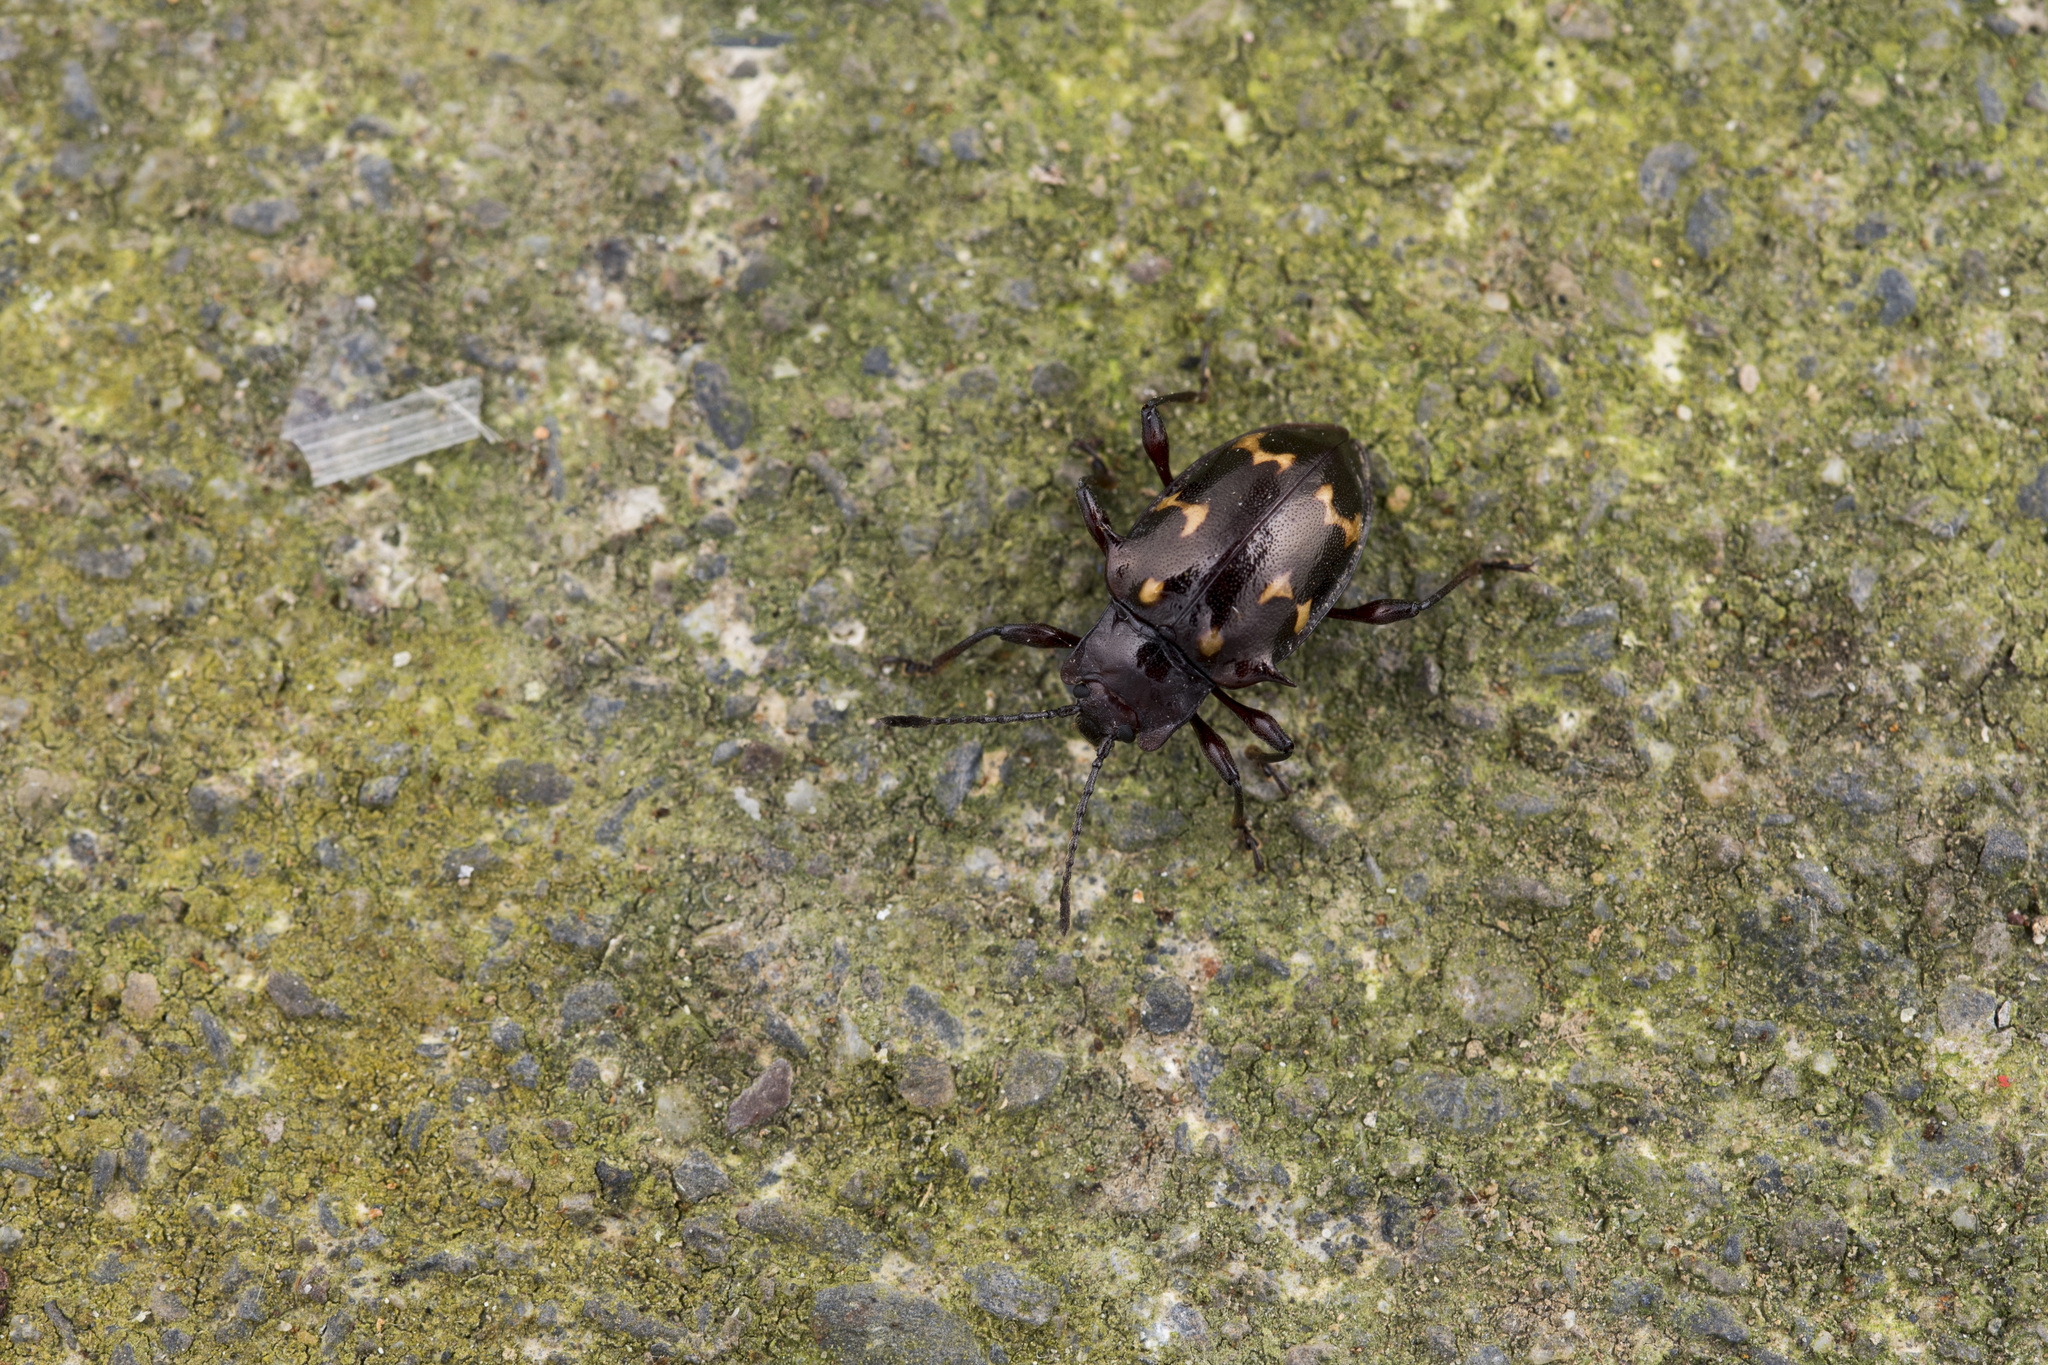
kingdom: Animalia
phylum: Arthropoda
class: Insecta
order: Coleoptera
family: Endomychidae
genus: Amphistethus
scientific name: Amphistethus astarte
